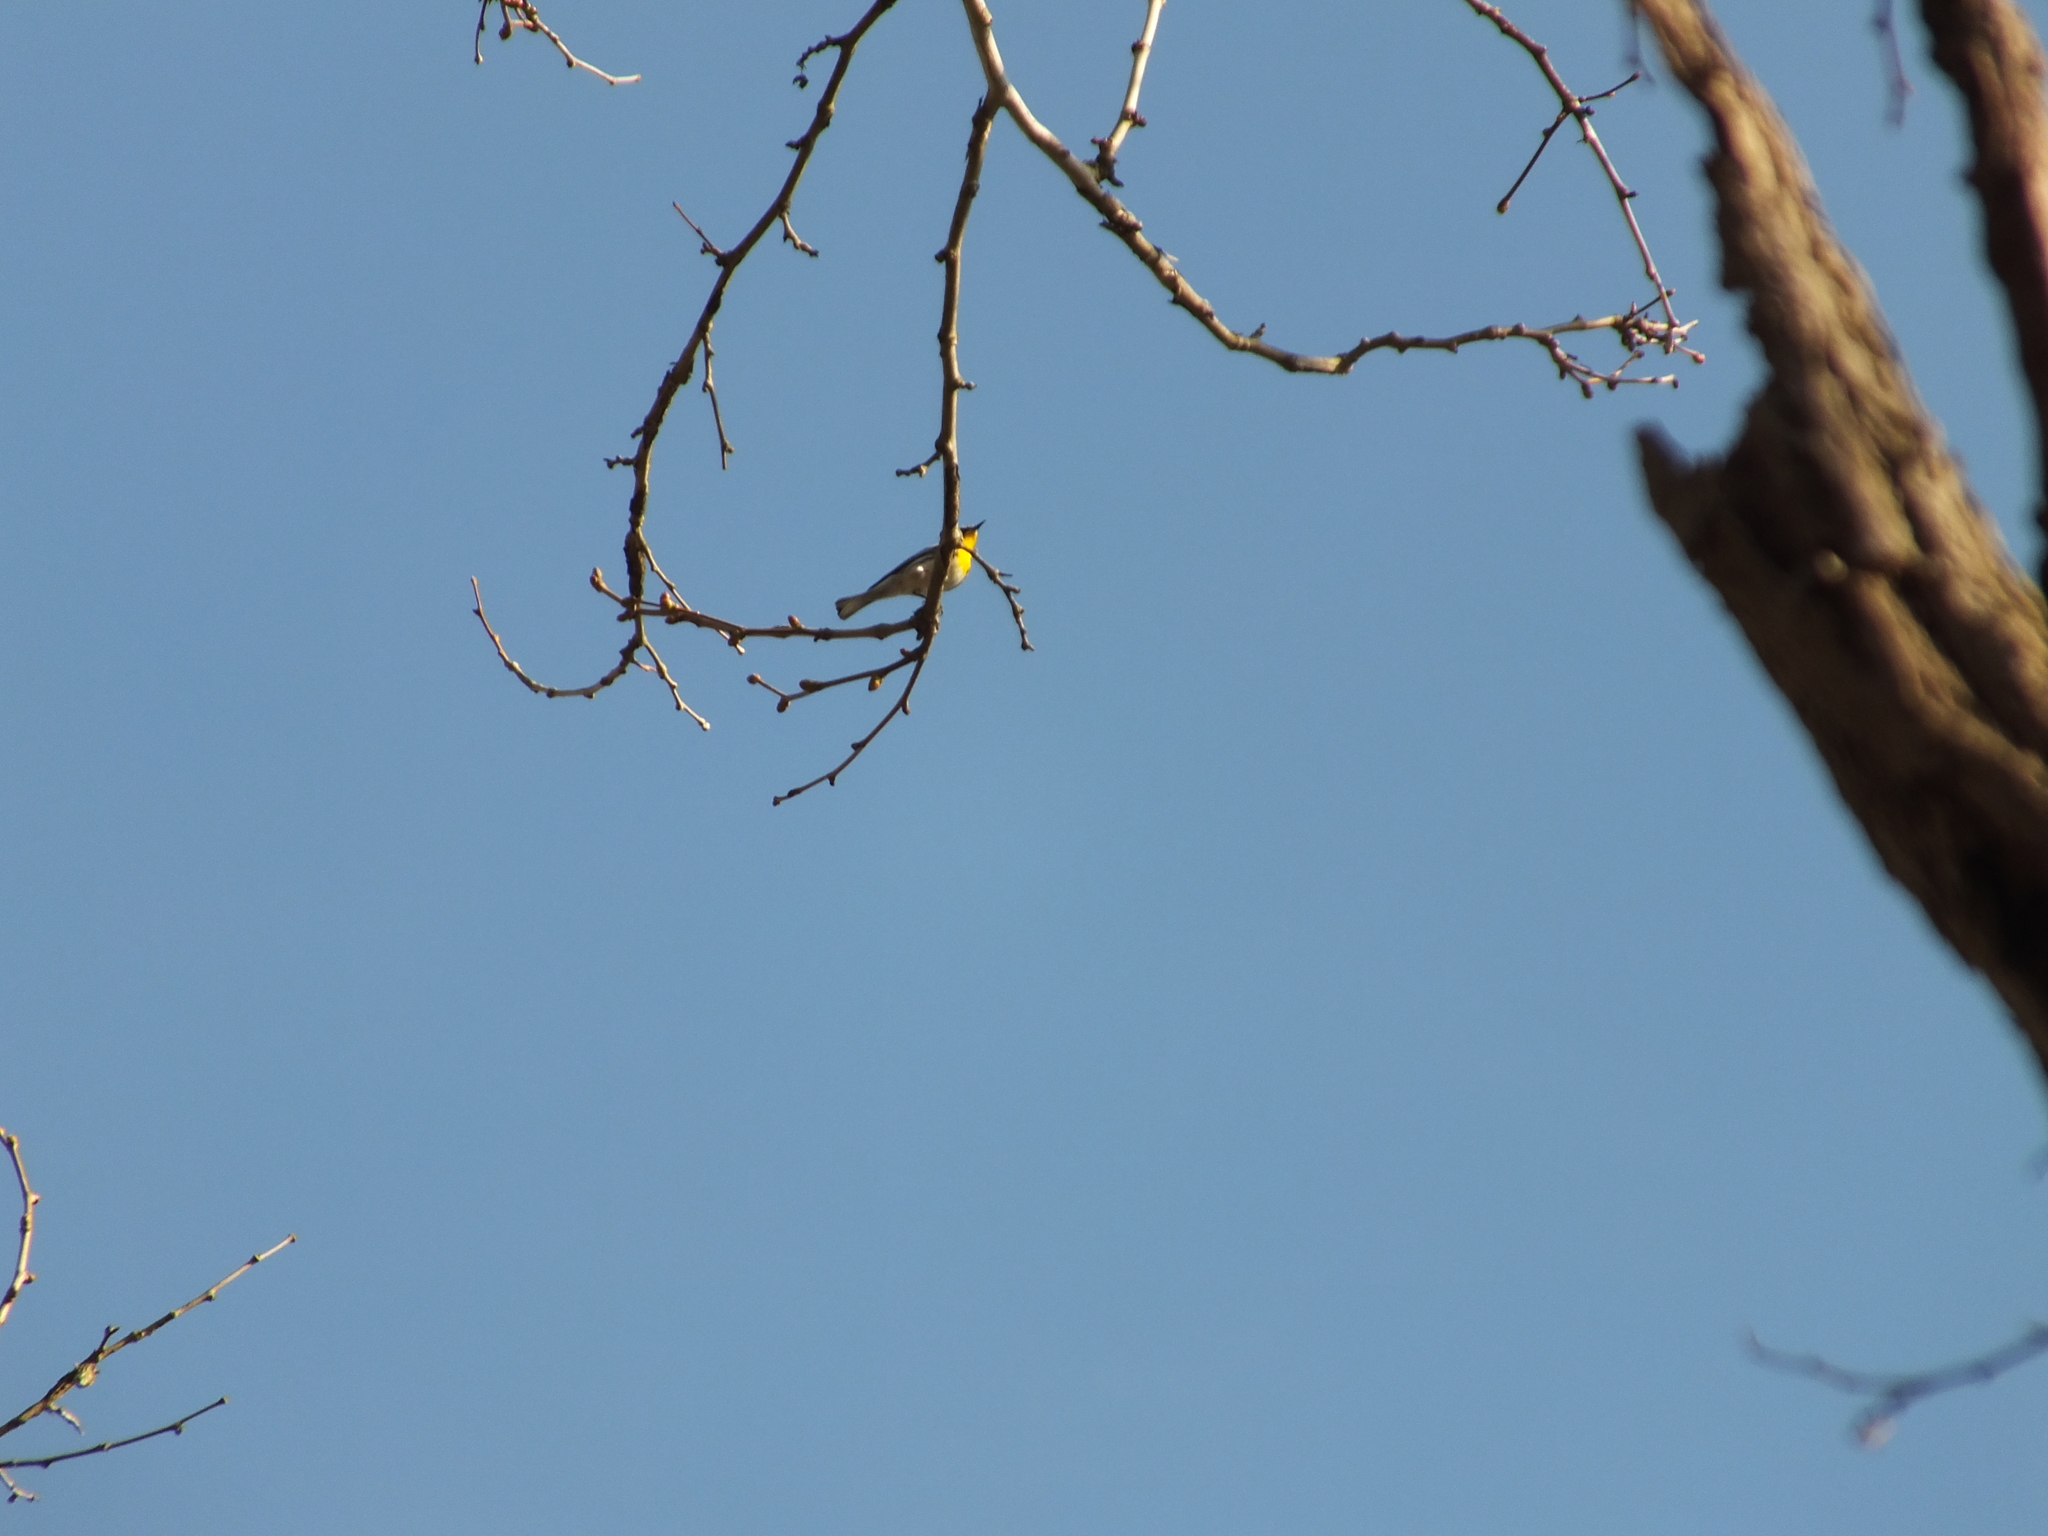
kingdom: Animalia
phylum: Chordata
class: Aves
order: Passeriformes
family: Parulidae
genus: Setophaga
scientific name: Setophaga dominica
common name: Yellow-throated warbler
